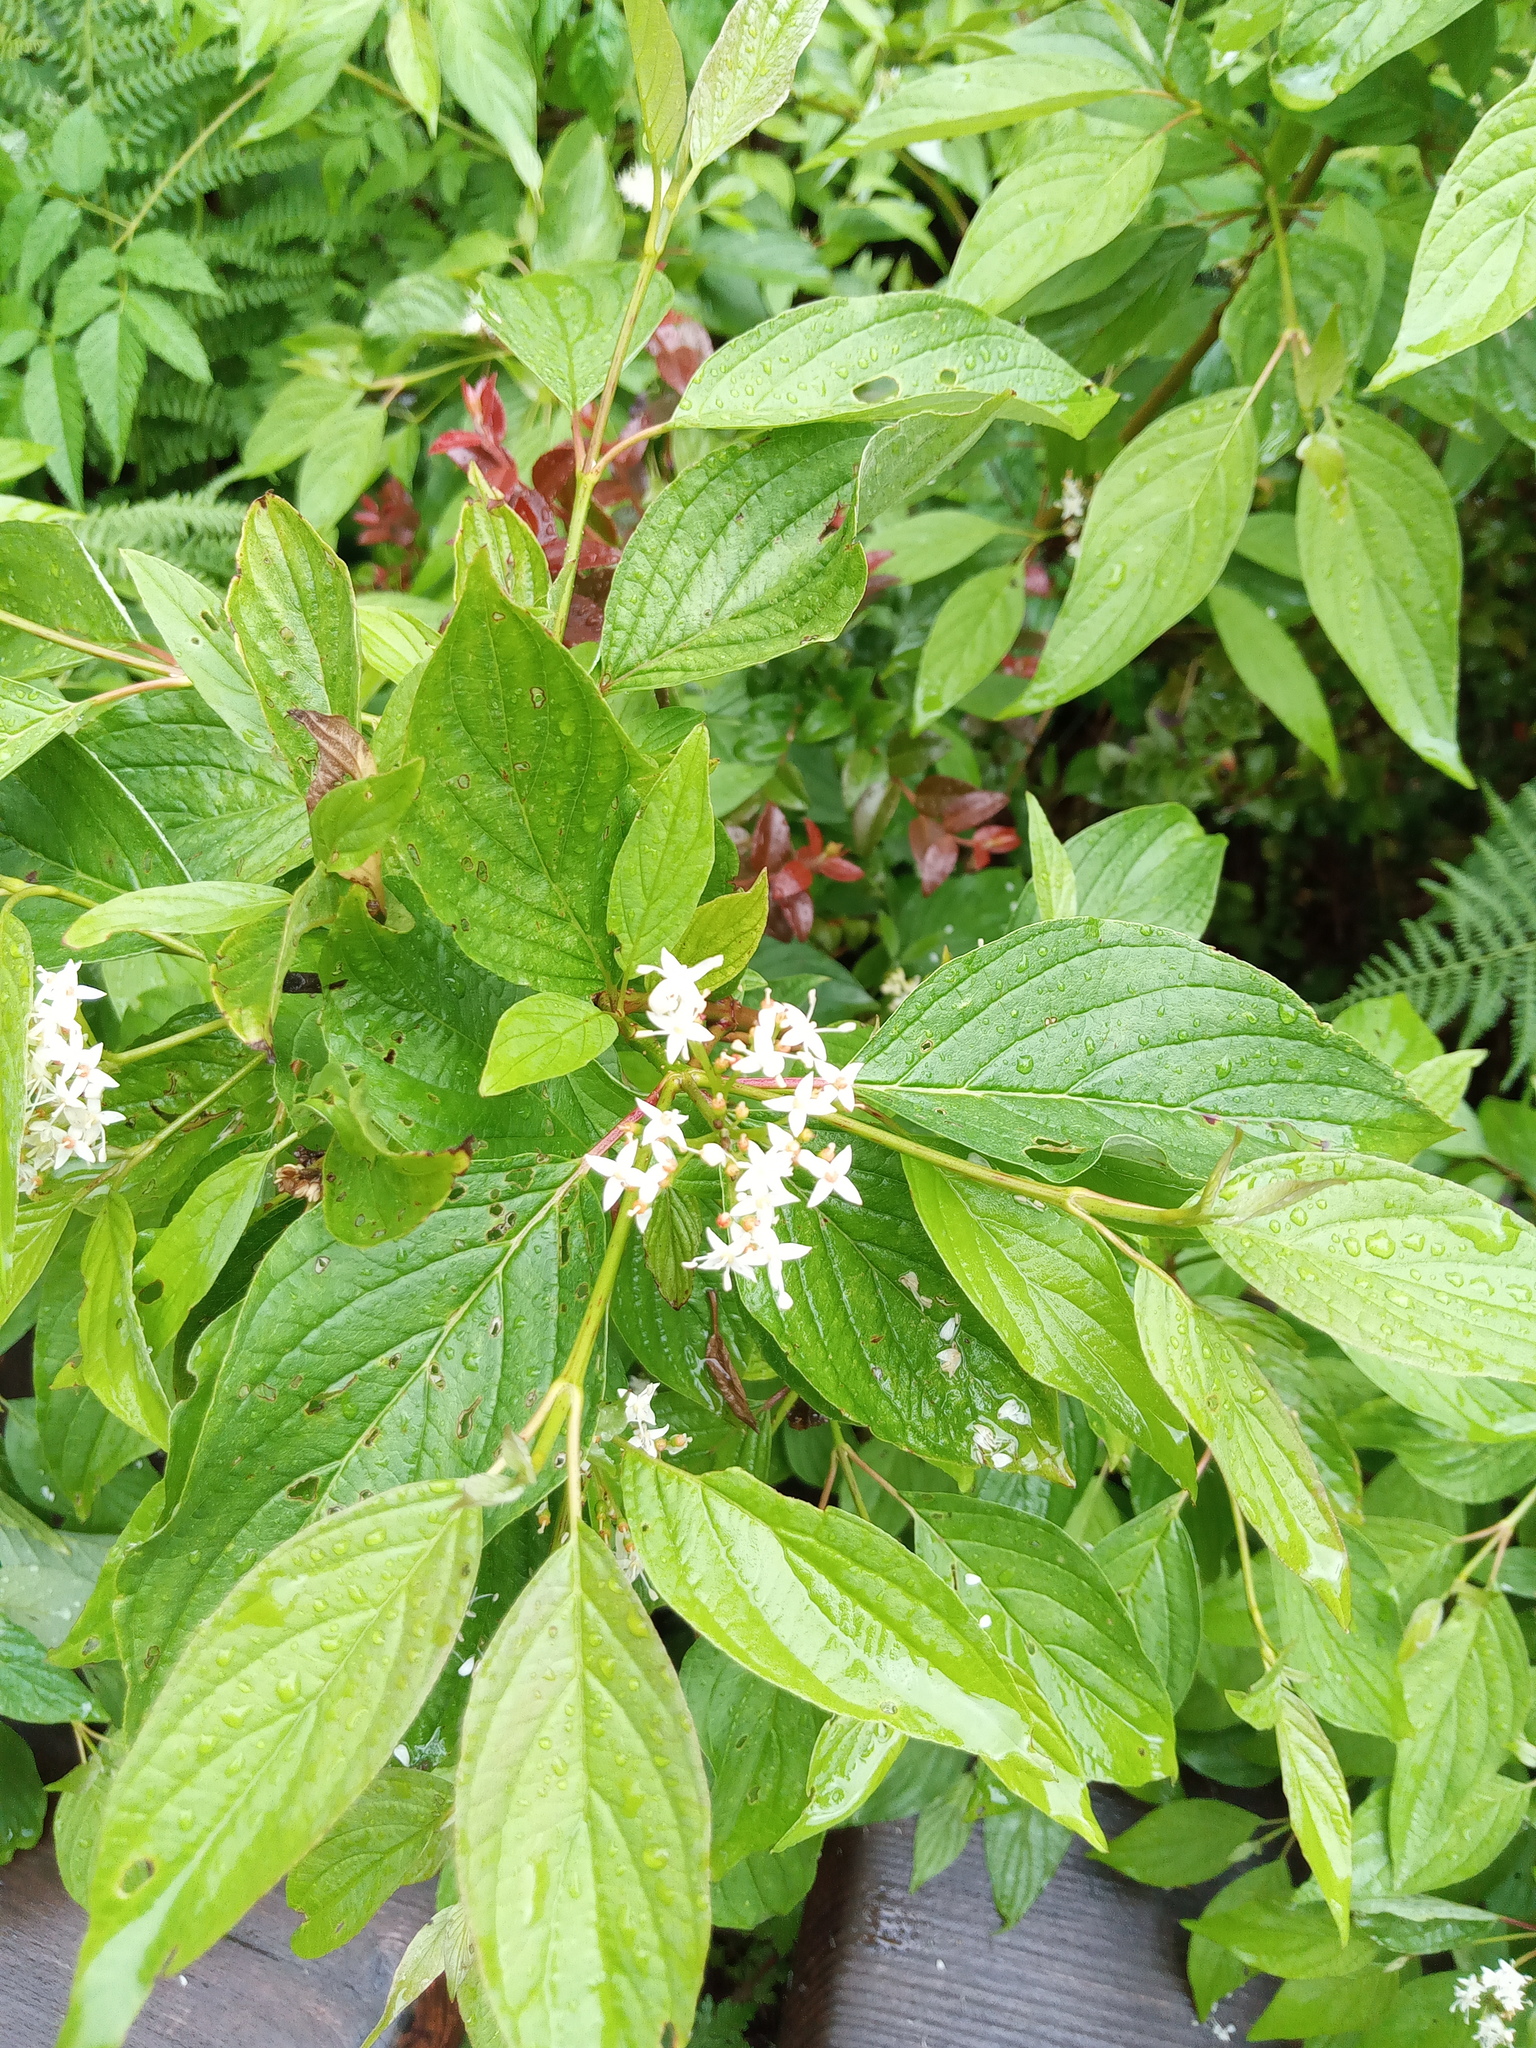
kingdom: Plantae
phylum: Tracheophyta
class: Magnoliopsida
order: Cornales
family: Cornaceae
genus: Cornus
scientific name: Cornus sericea
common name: Red-osier dogwood
